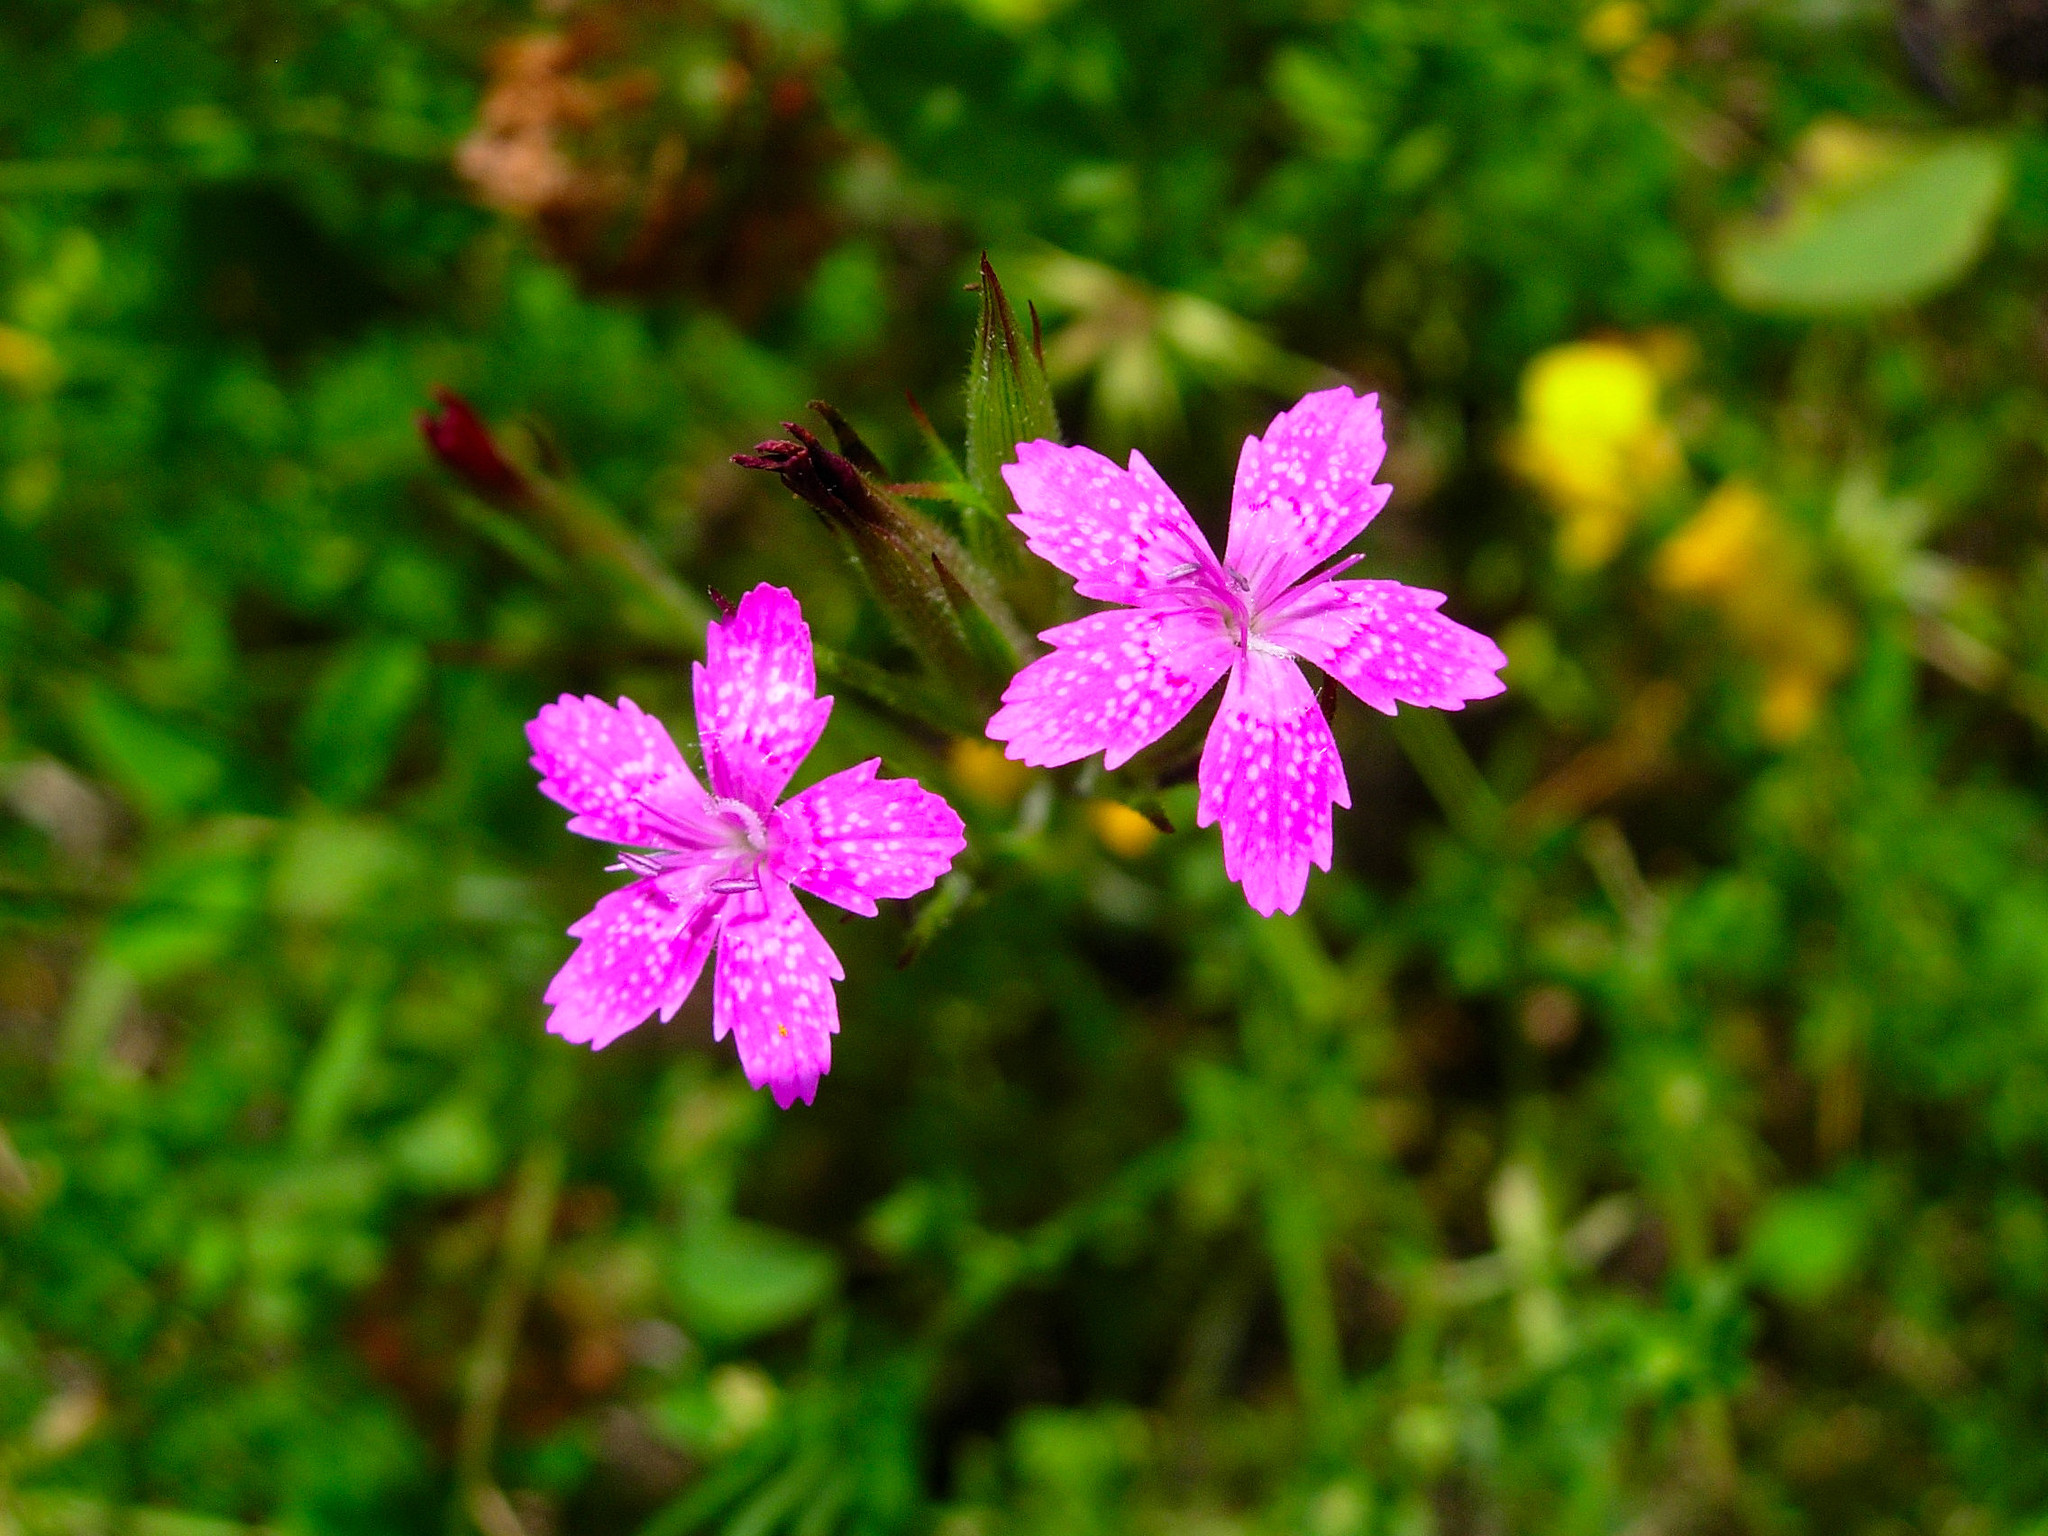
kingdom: Plantae
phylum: Tracheophyta
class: Magnoliopsida
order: Caryophyllales
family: Caryophyllaceae
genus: Dianthus
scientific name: Dianthus armeria
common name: Deptford pink
